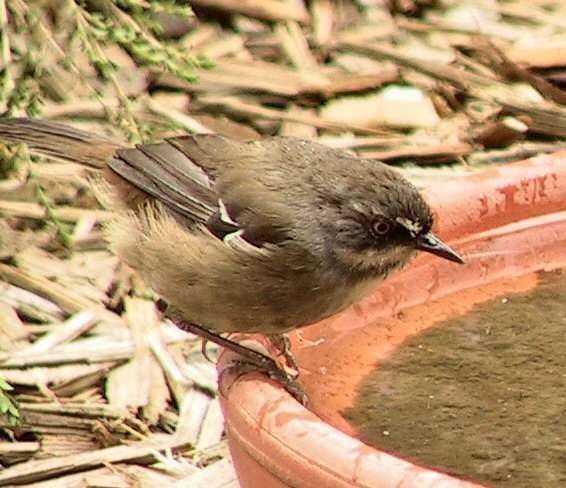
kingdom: Animalia
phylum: Chordata
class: Aves
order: Passeriformes
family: Acanthizidae
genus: Sericornis
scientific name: Sericornis frontalis
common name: White-browed scrubwren
